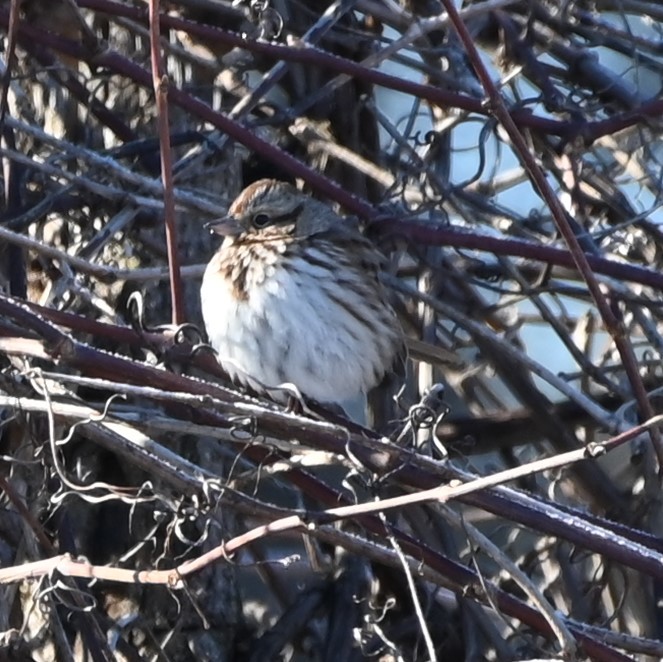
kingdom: Animalia
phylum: Chordata
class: Aves
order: Passeriformes
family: Passerellidae
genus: Melospiza
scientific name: Melospiza melodia
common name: Song sparrow
